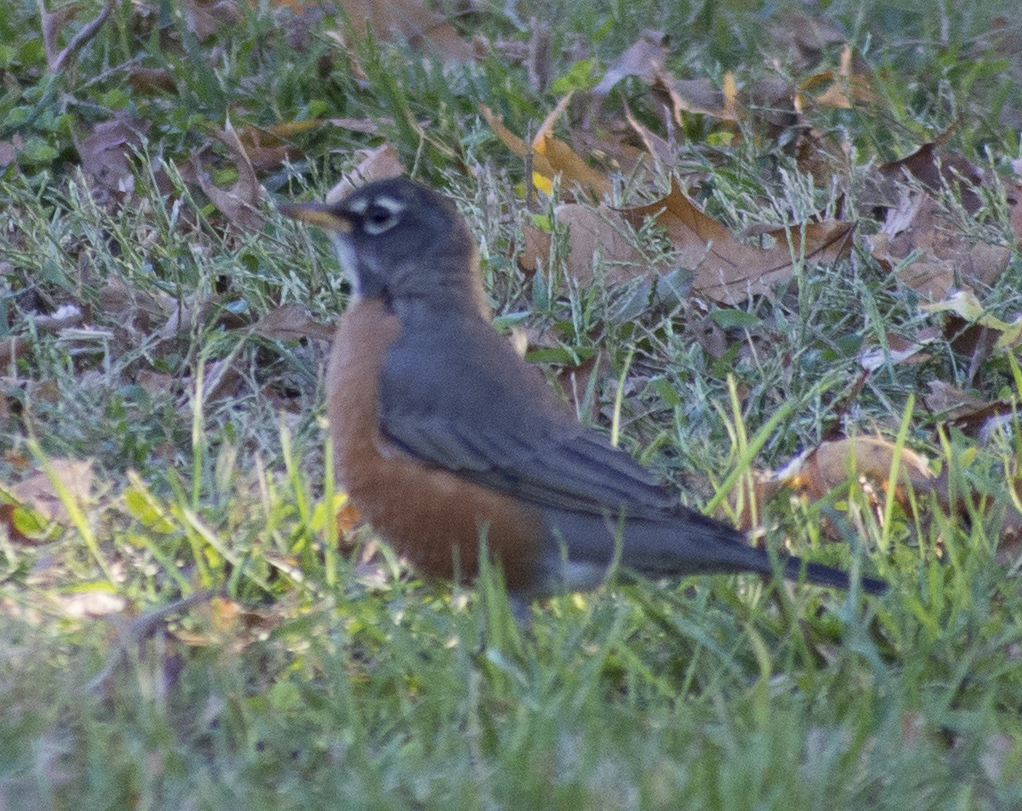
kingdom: Animalia
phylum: Chordata
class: Aves
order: Passeriformes
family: Turdidae
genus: Turdus
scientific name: Turdus migratorius
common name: American robin
